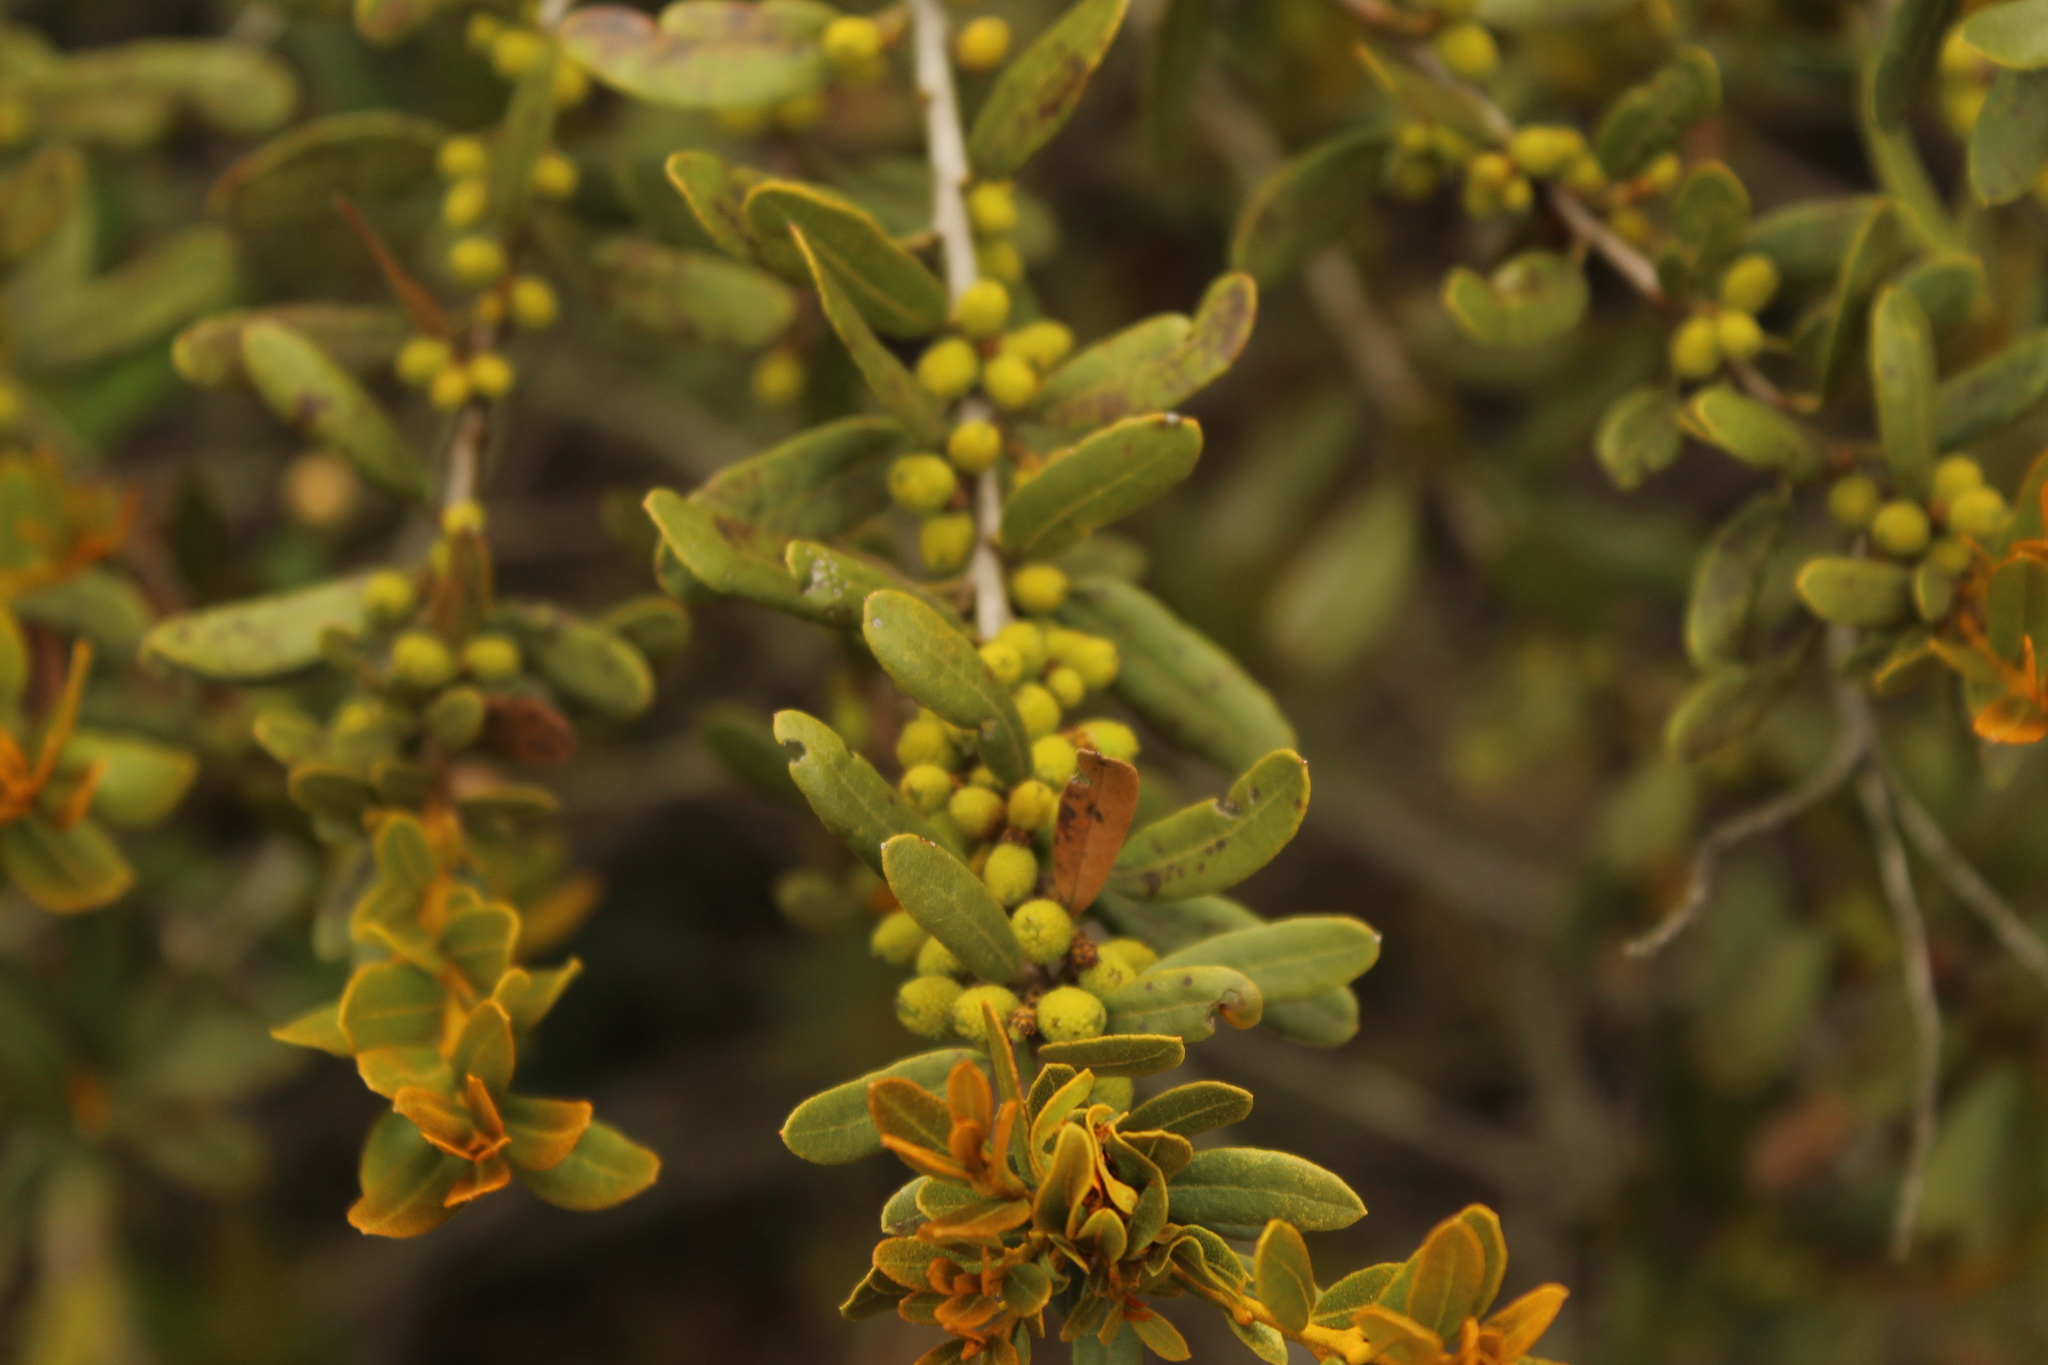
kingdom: Plantae
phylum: Tracheophyta
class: Magnoliopsida
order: Fagales
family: Myricaceae
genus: Morella
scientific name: Morella parvifolia
